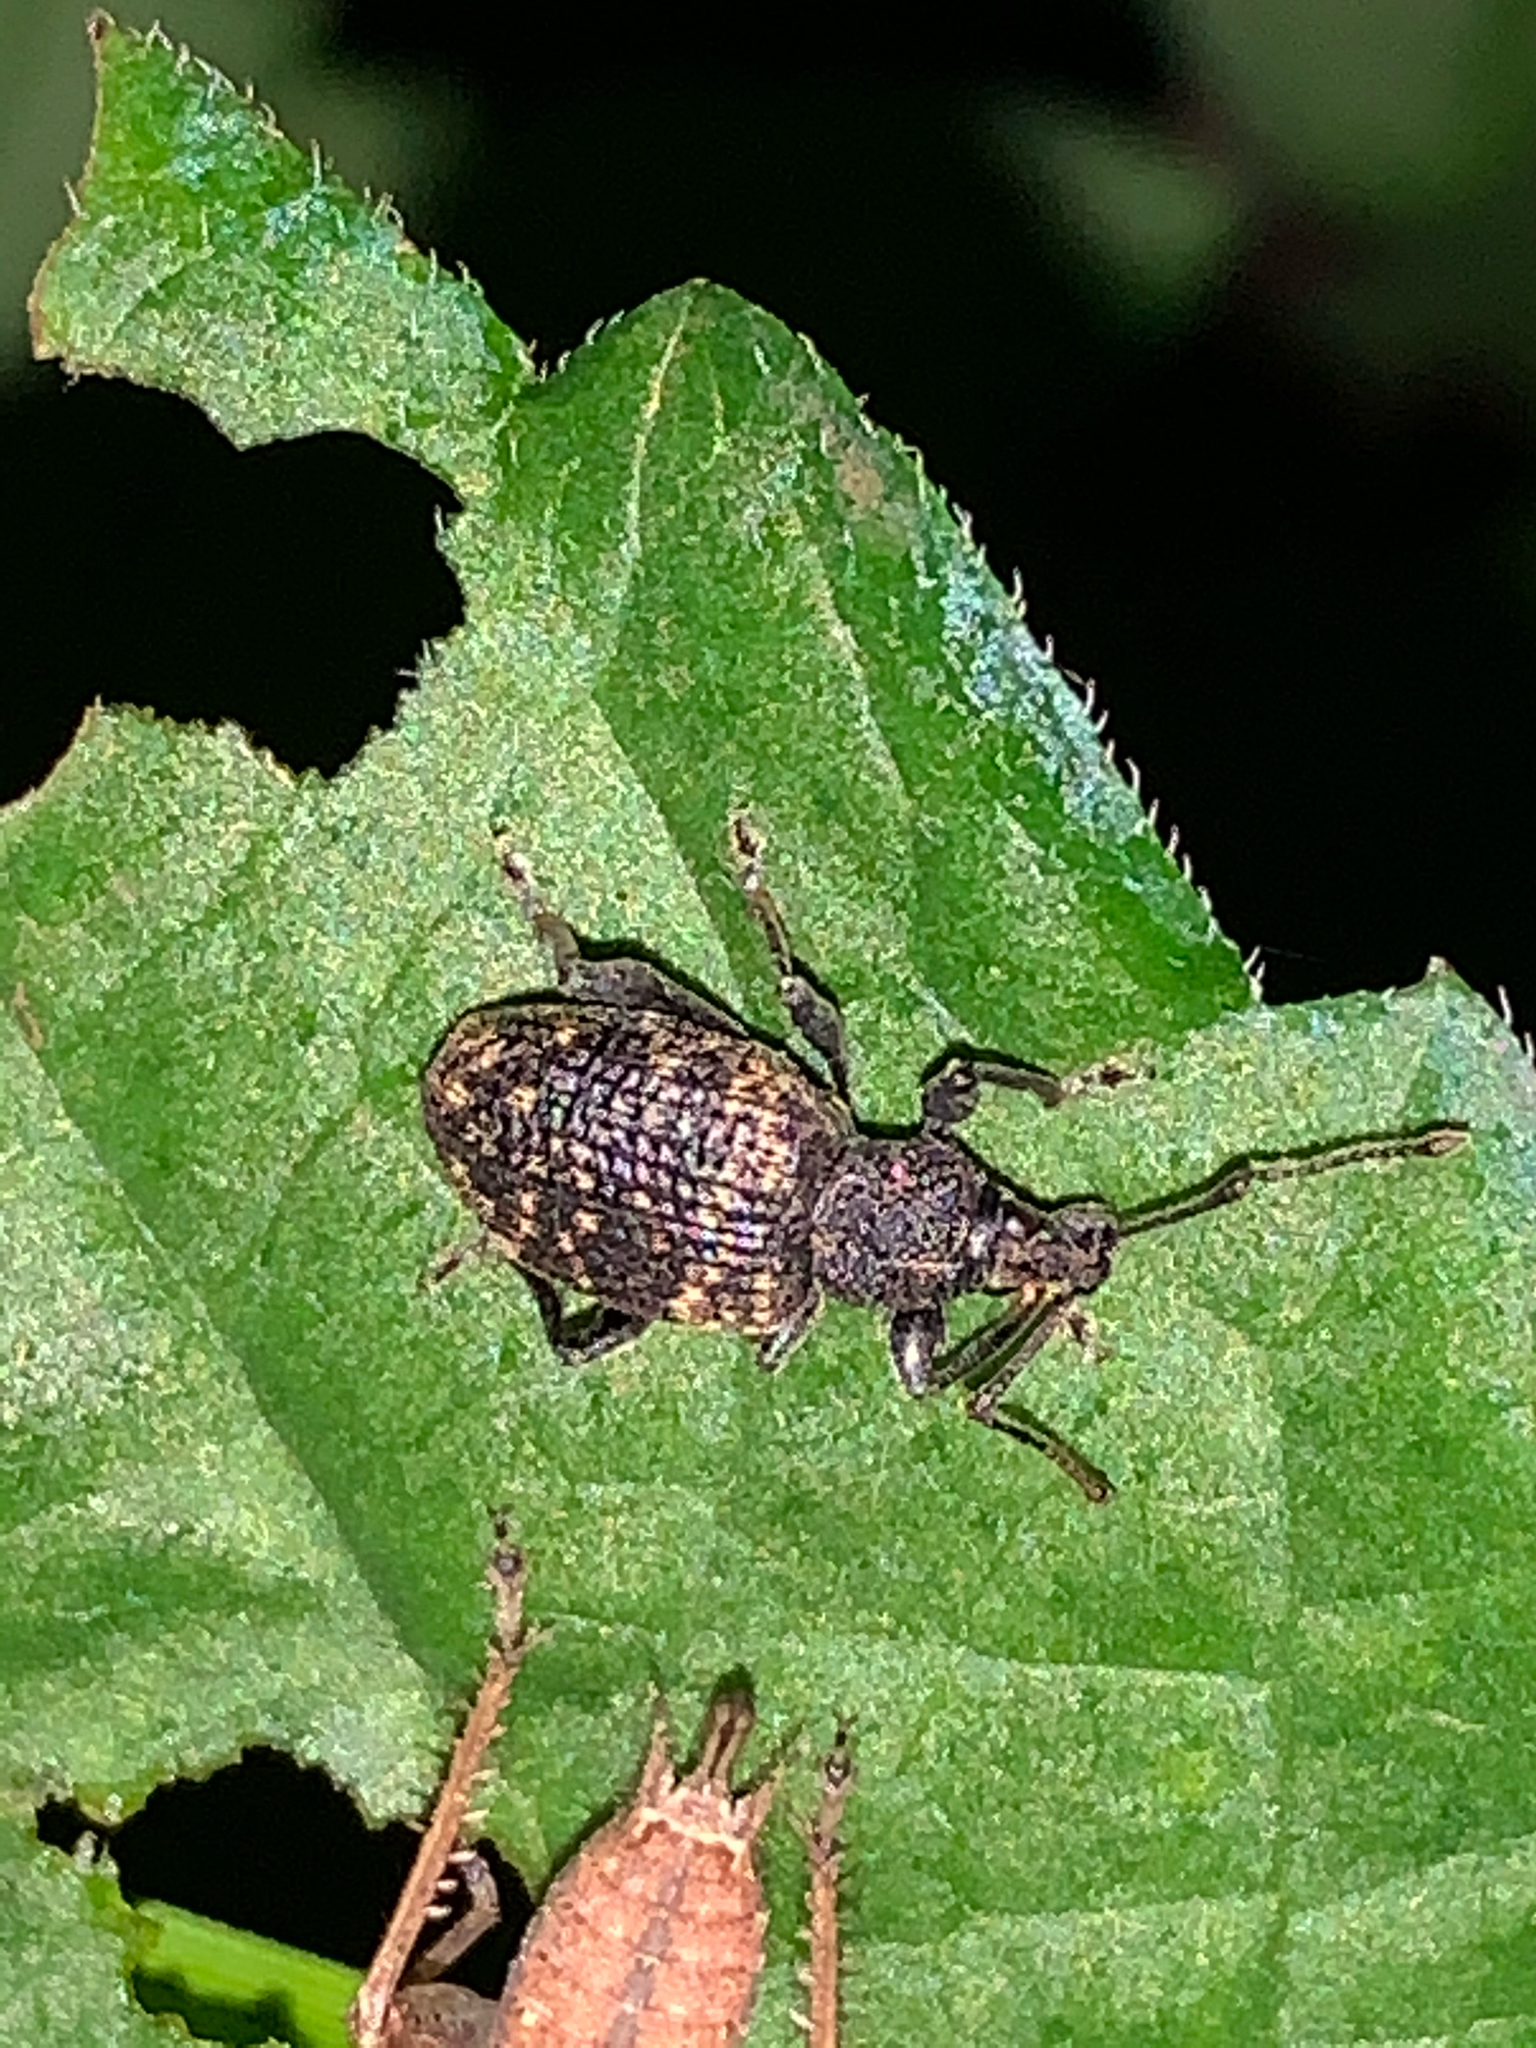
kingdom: Animalia
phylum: Arthropoda
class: Insecta
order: Coleoptera
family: Curculionidae
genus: Otiorhynchus
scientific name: Otiorhynchus sulcatus
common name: Black vine weevil
